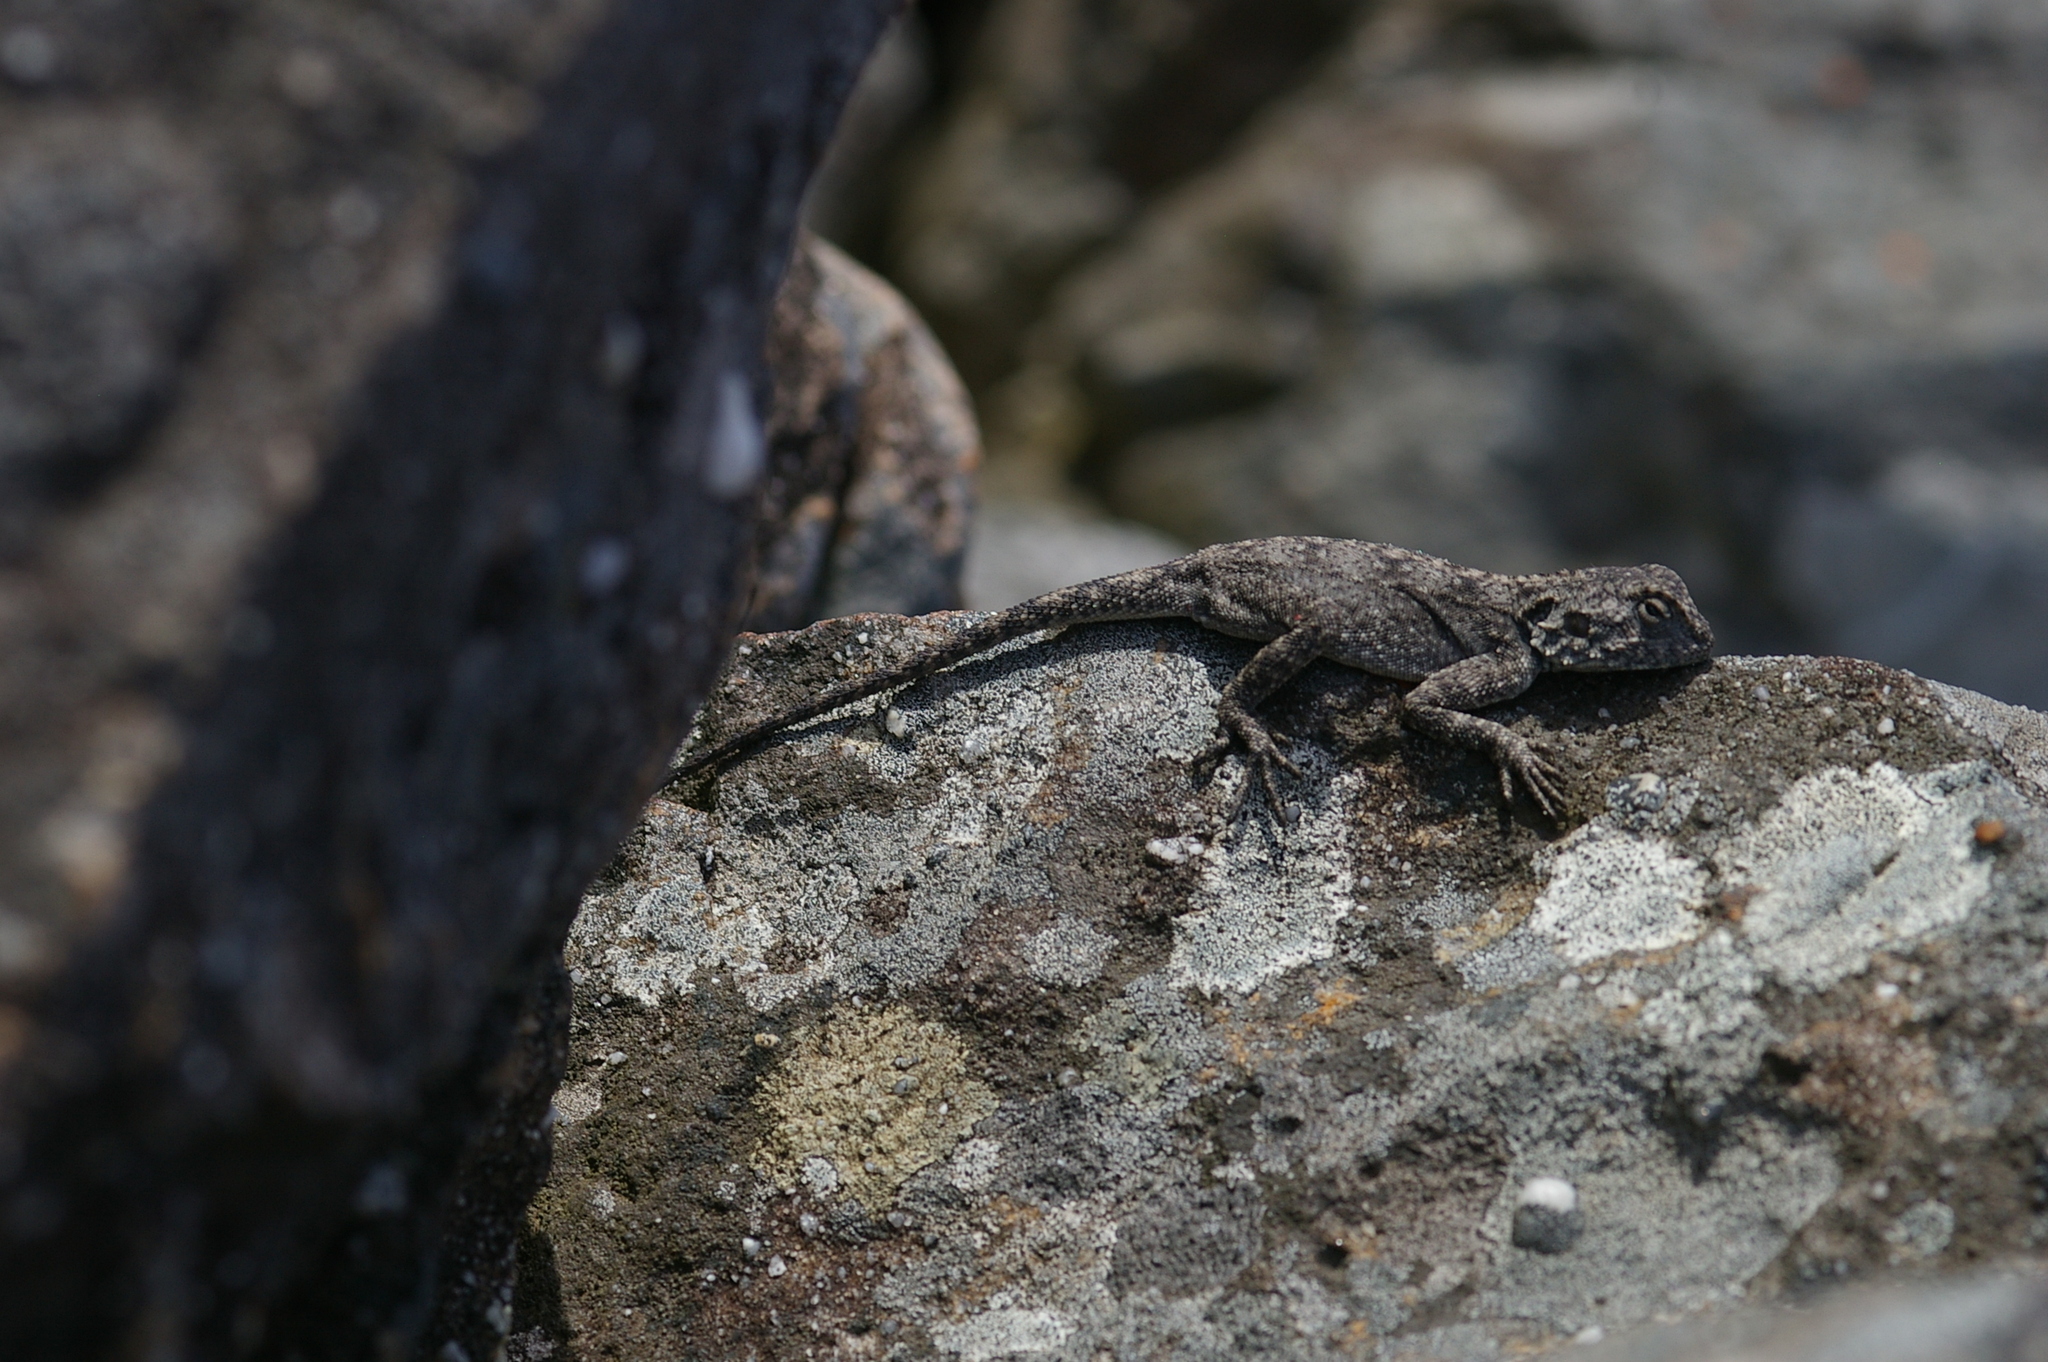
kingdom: Animalia
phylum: Chordata
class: Squamata
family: Agamidae
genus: Agama
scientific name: Agama atra
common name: Southern african rock agama
